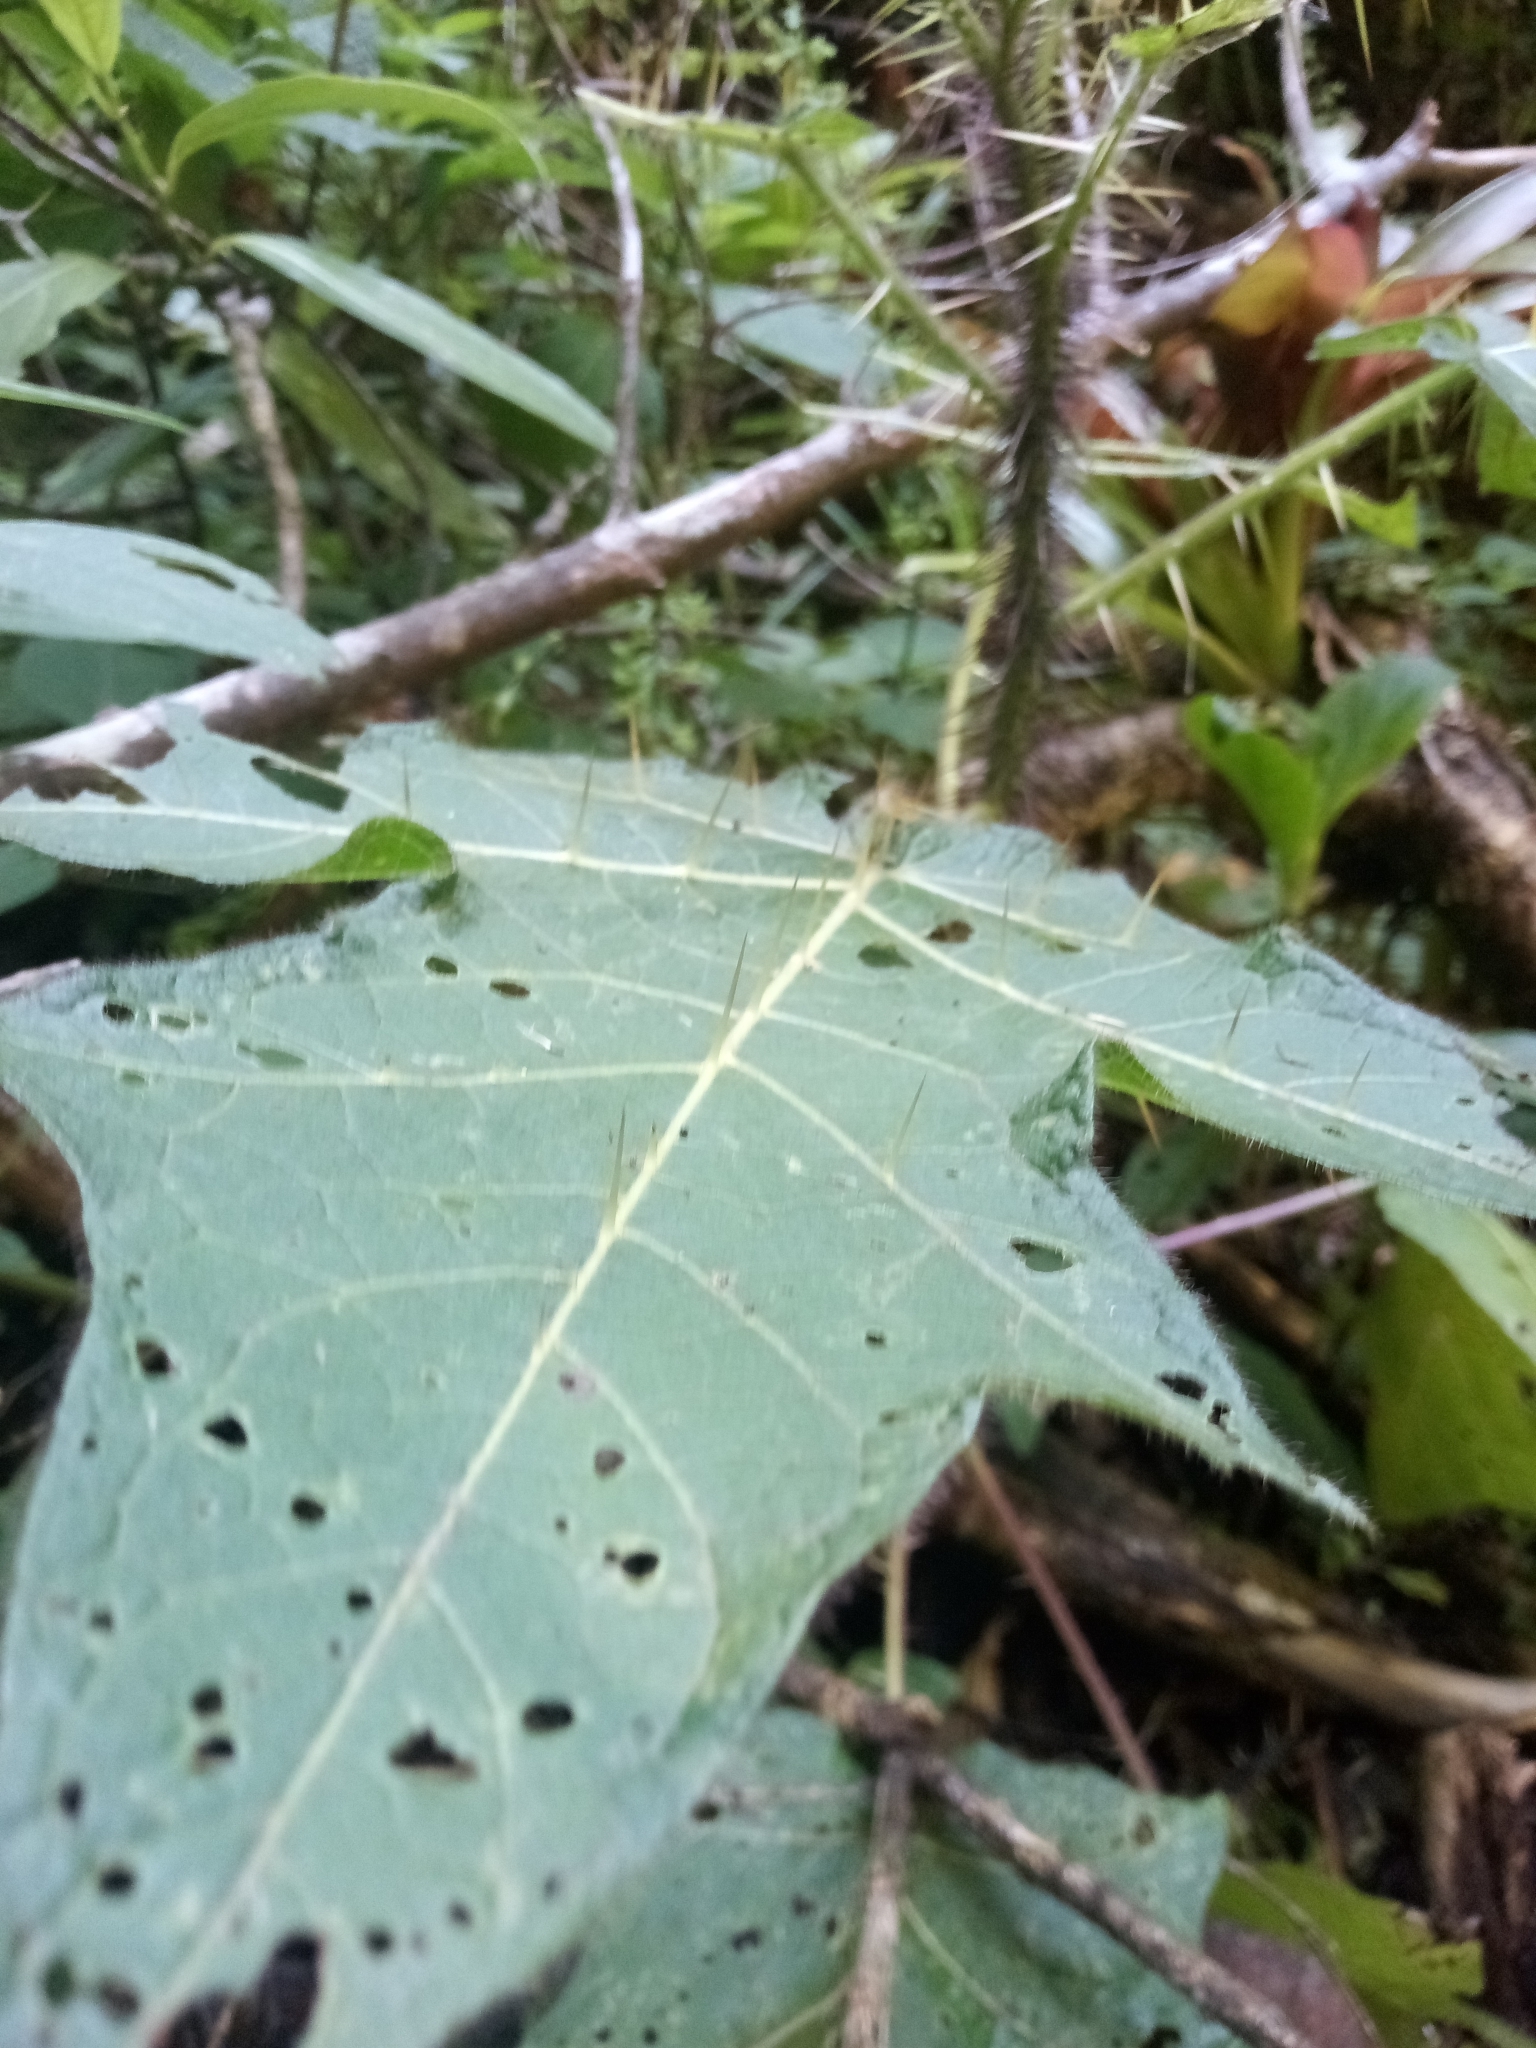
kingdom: Plantae
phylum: Tracheophyta
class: Magnoliopsida
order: Solanales
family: Solanaceae
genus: Solanum
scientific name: Solanum acerifolium
